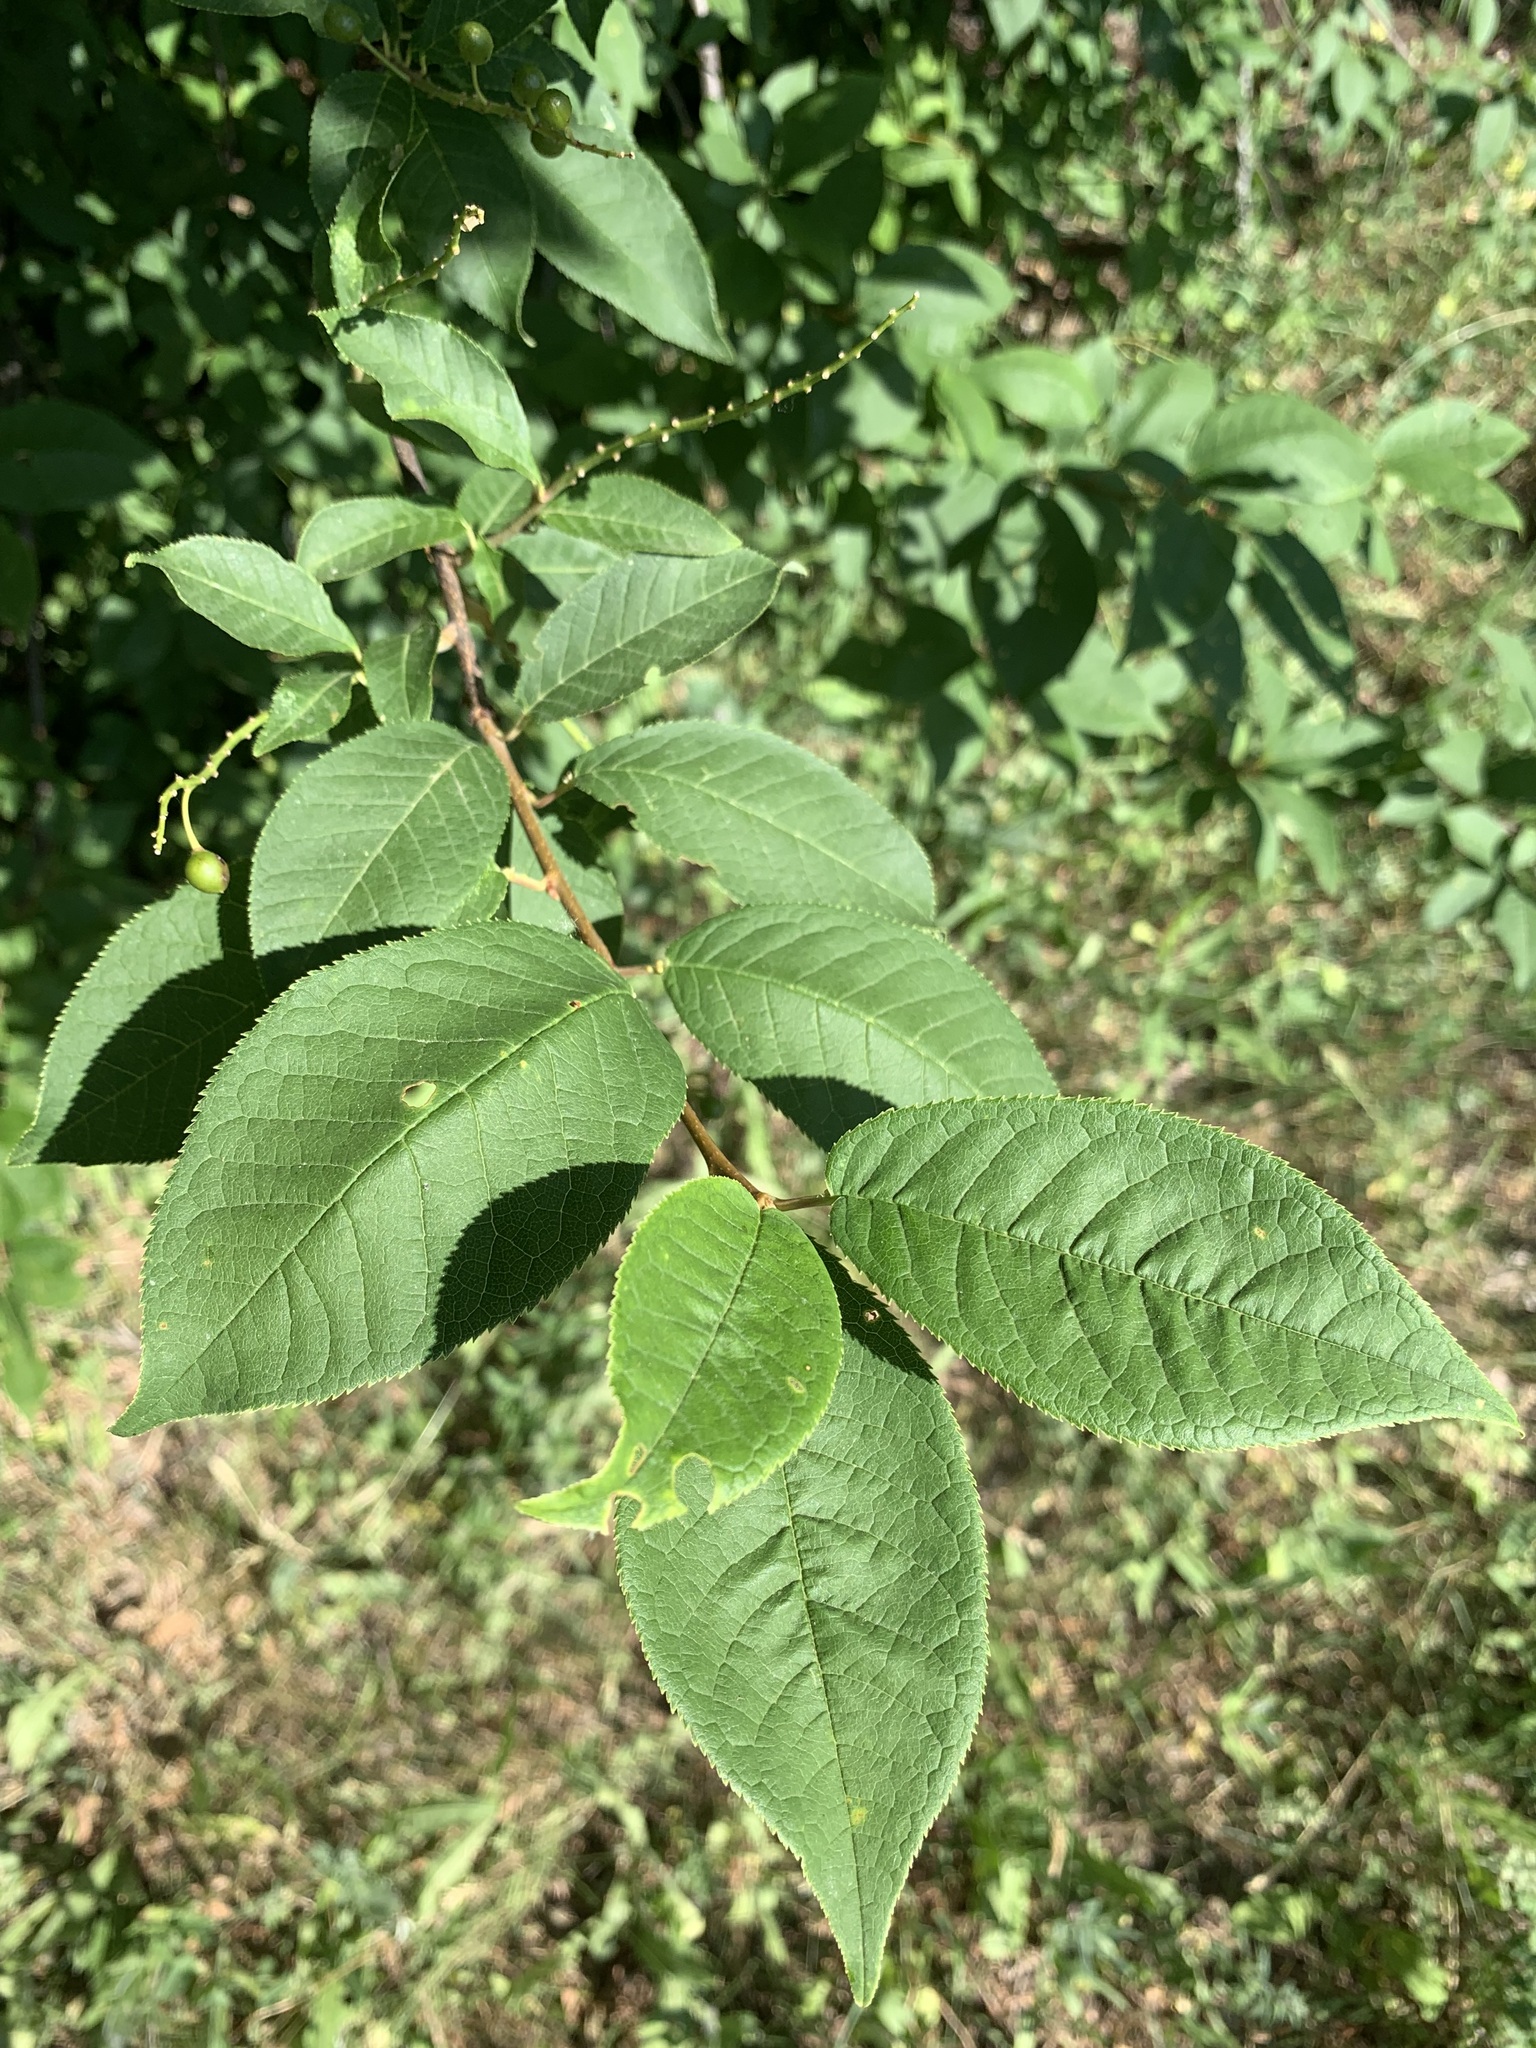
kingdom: Plantae
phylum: Tracheophyta
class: Magnoliopsida
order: Rosales
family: Rosaceae
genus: Prunus
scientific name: Prunus padus
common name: Bird cherry
